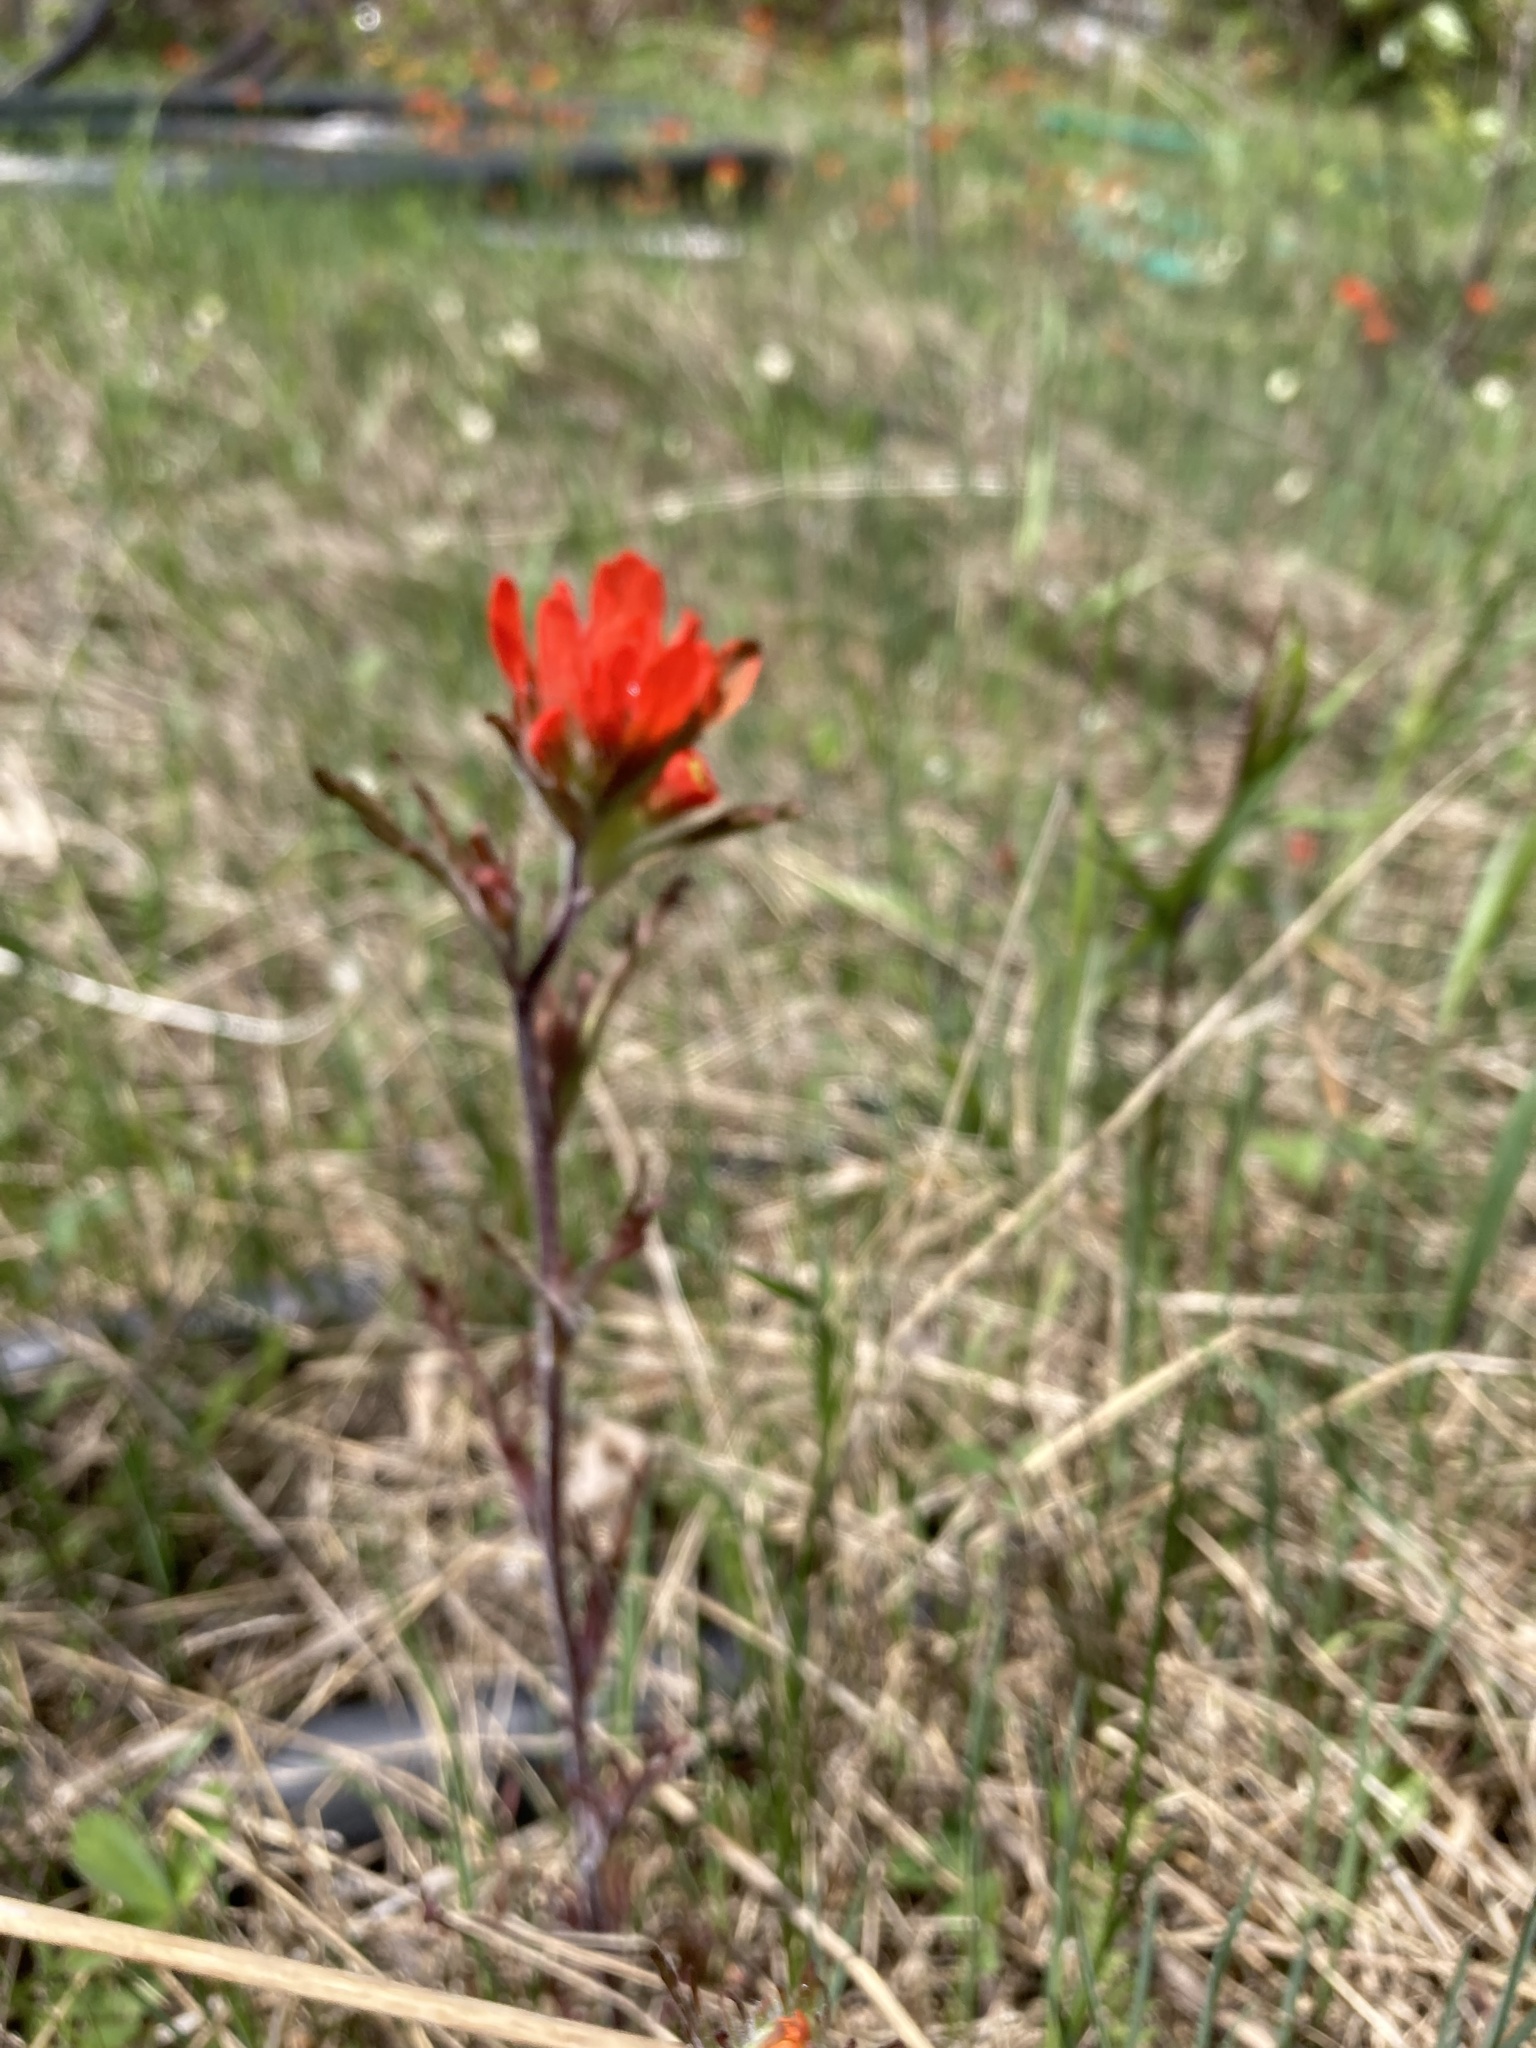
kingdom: Plantae
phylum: Tracheophyta
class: Magnoliopsida
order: Lamiales
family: Orobanchaceae
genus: Castilleja
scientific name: Castilleja coccinea
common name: Scarlet paintbrush
